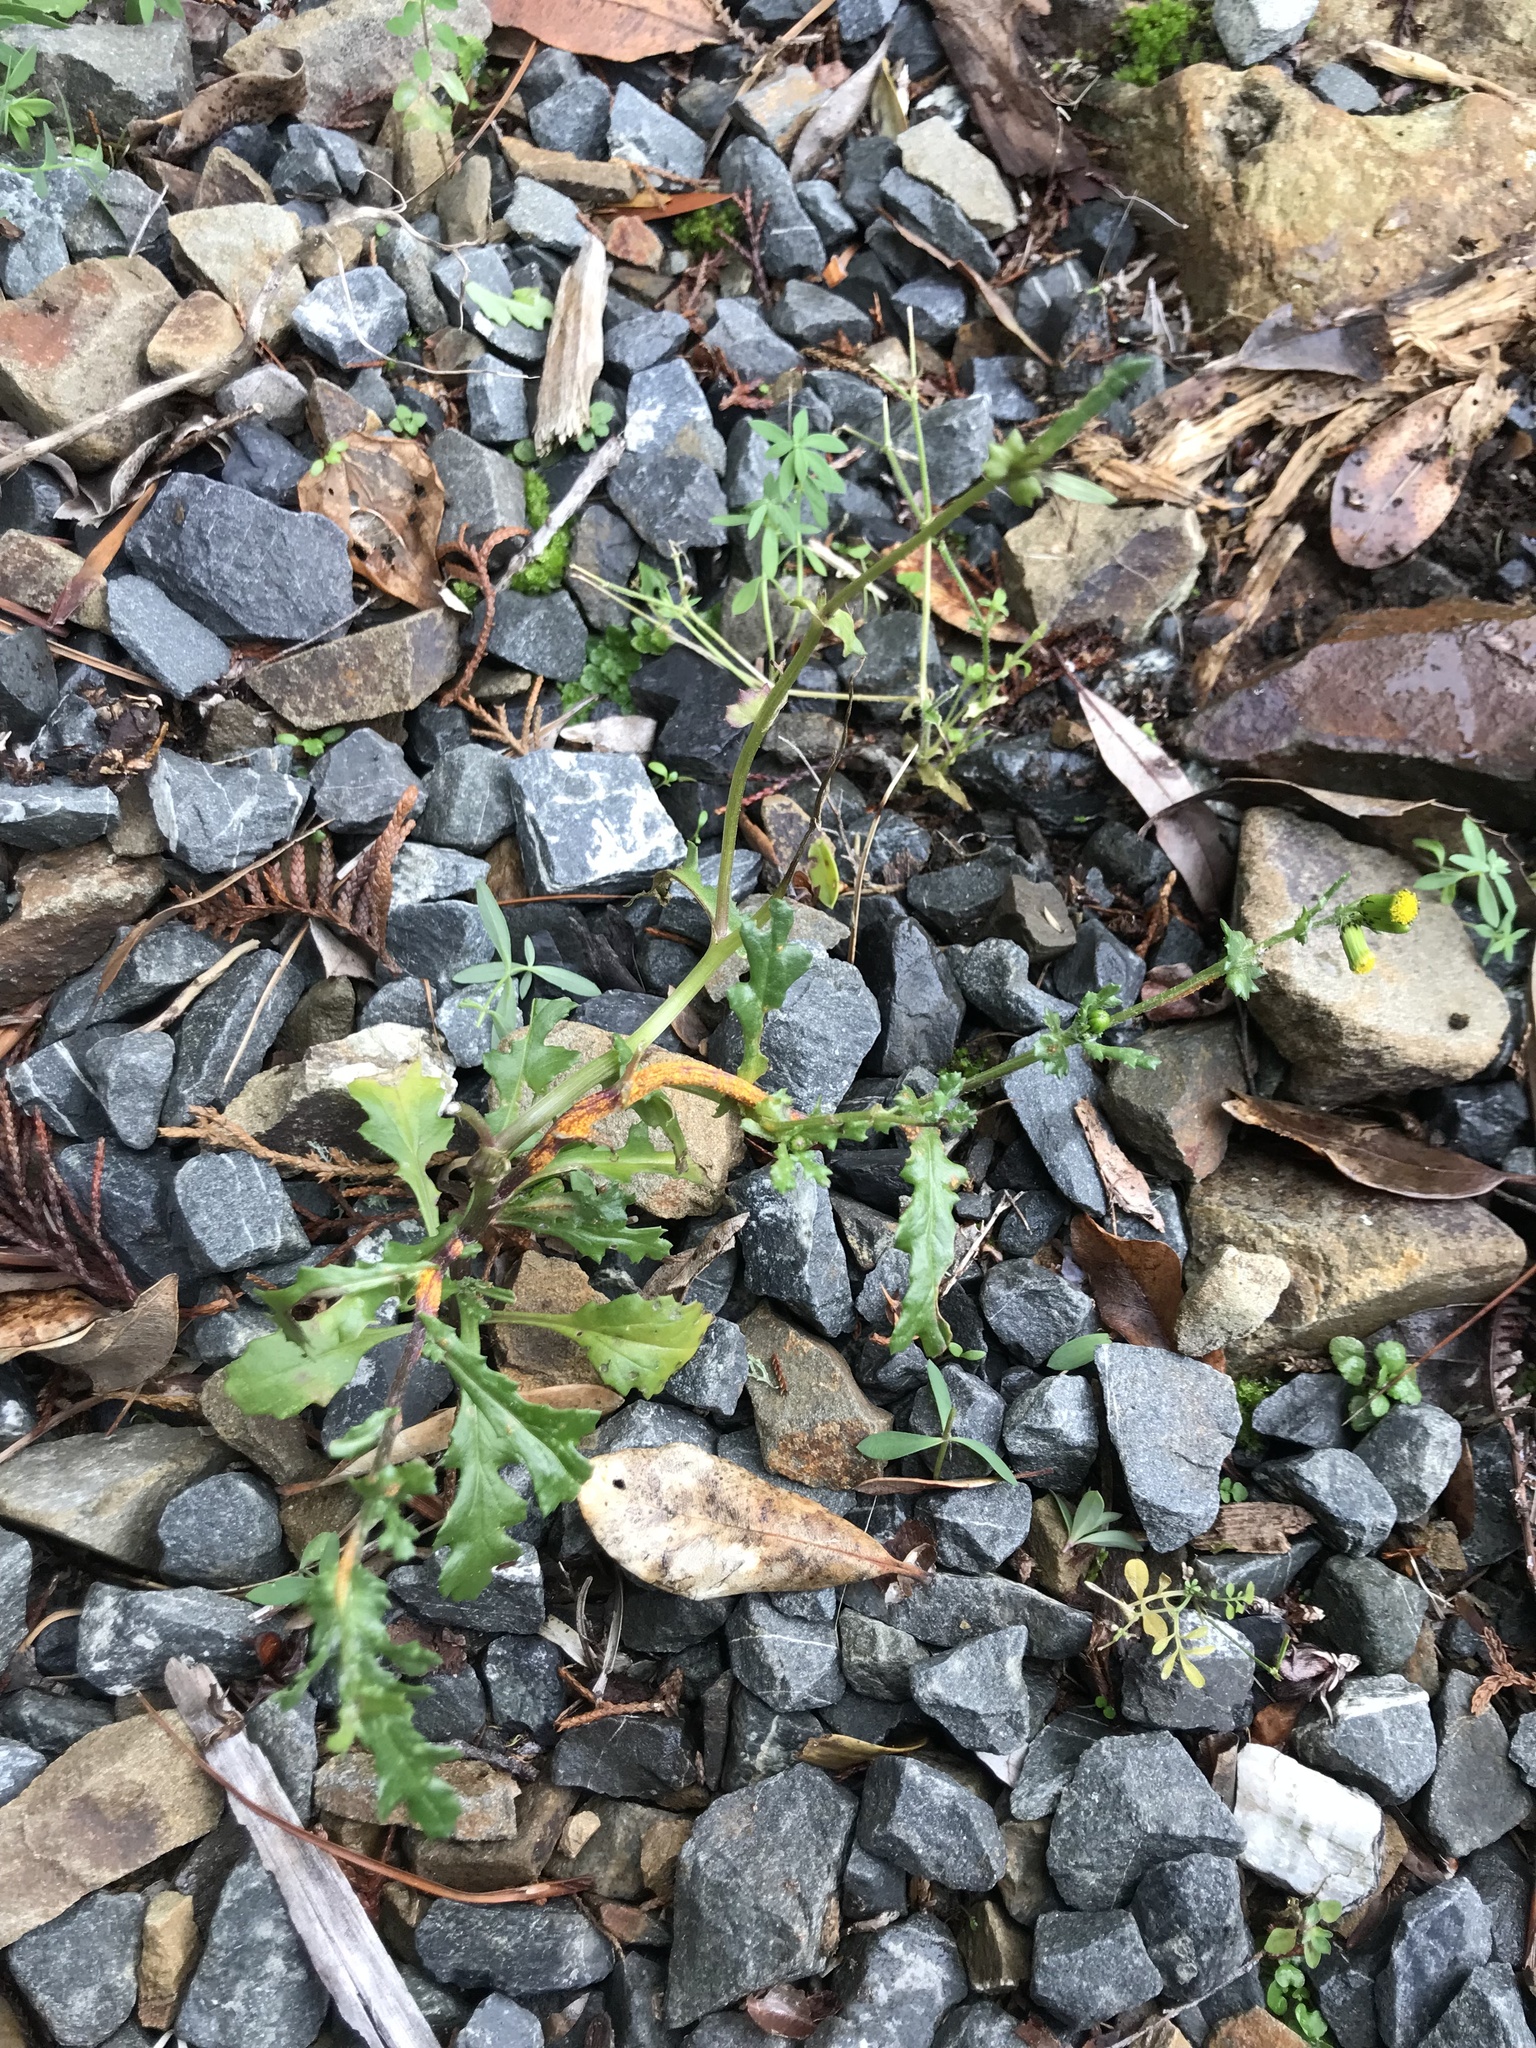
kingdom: Plantae
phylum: Tracheophyta
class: Magnoliopsida
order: Asterales
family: Asteraceae
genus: Senecio
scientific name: Senecio vulgaris
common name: Old-man-in-the-spring
